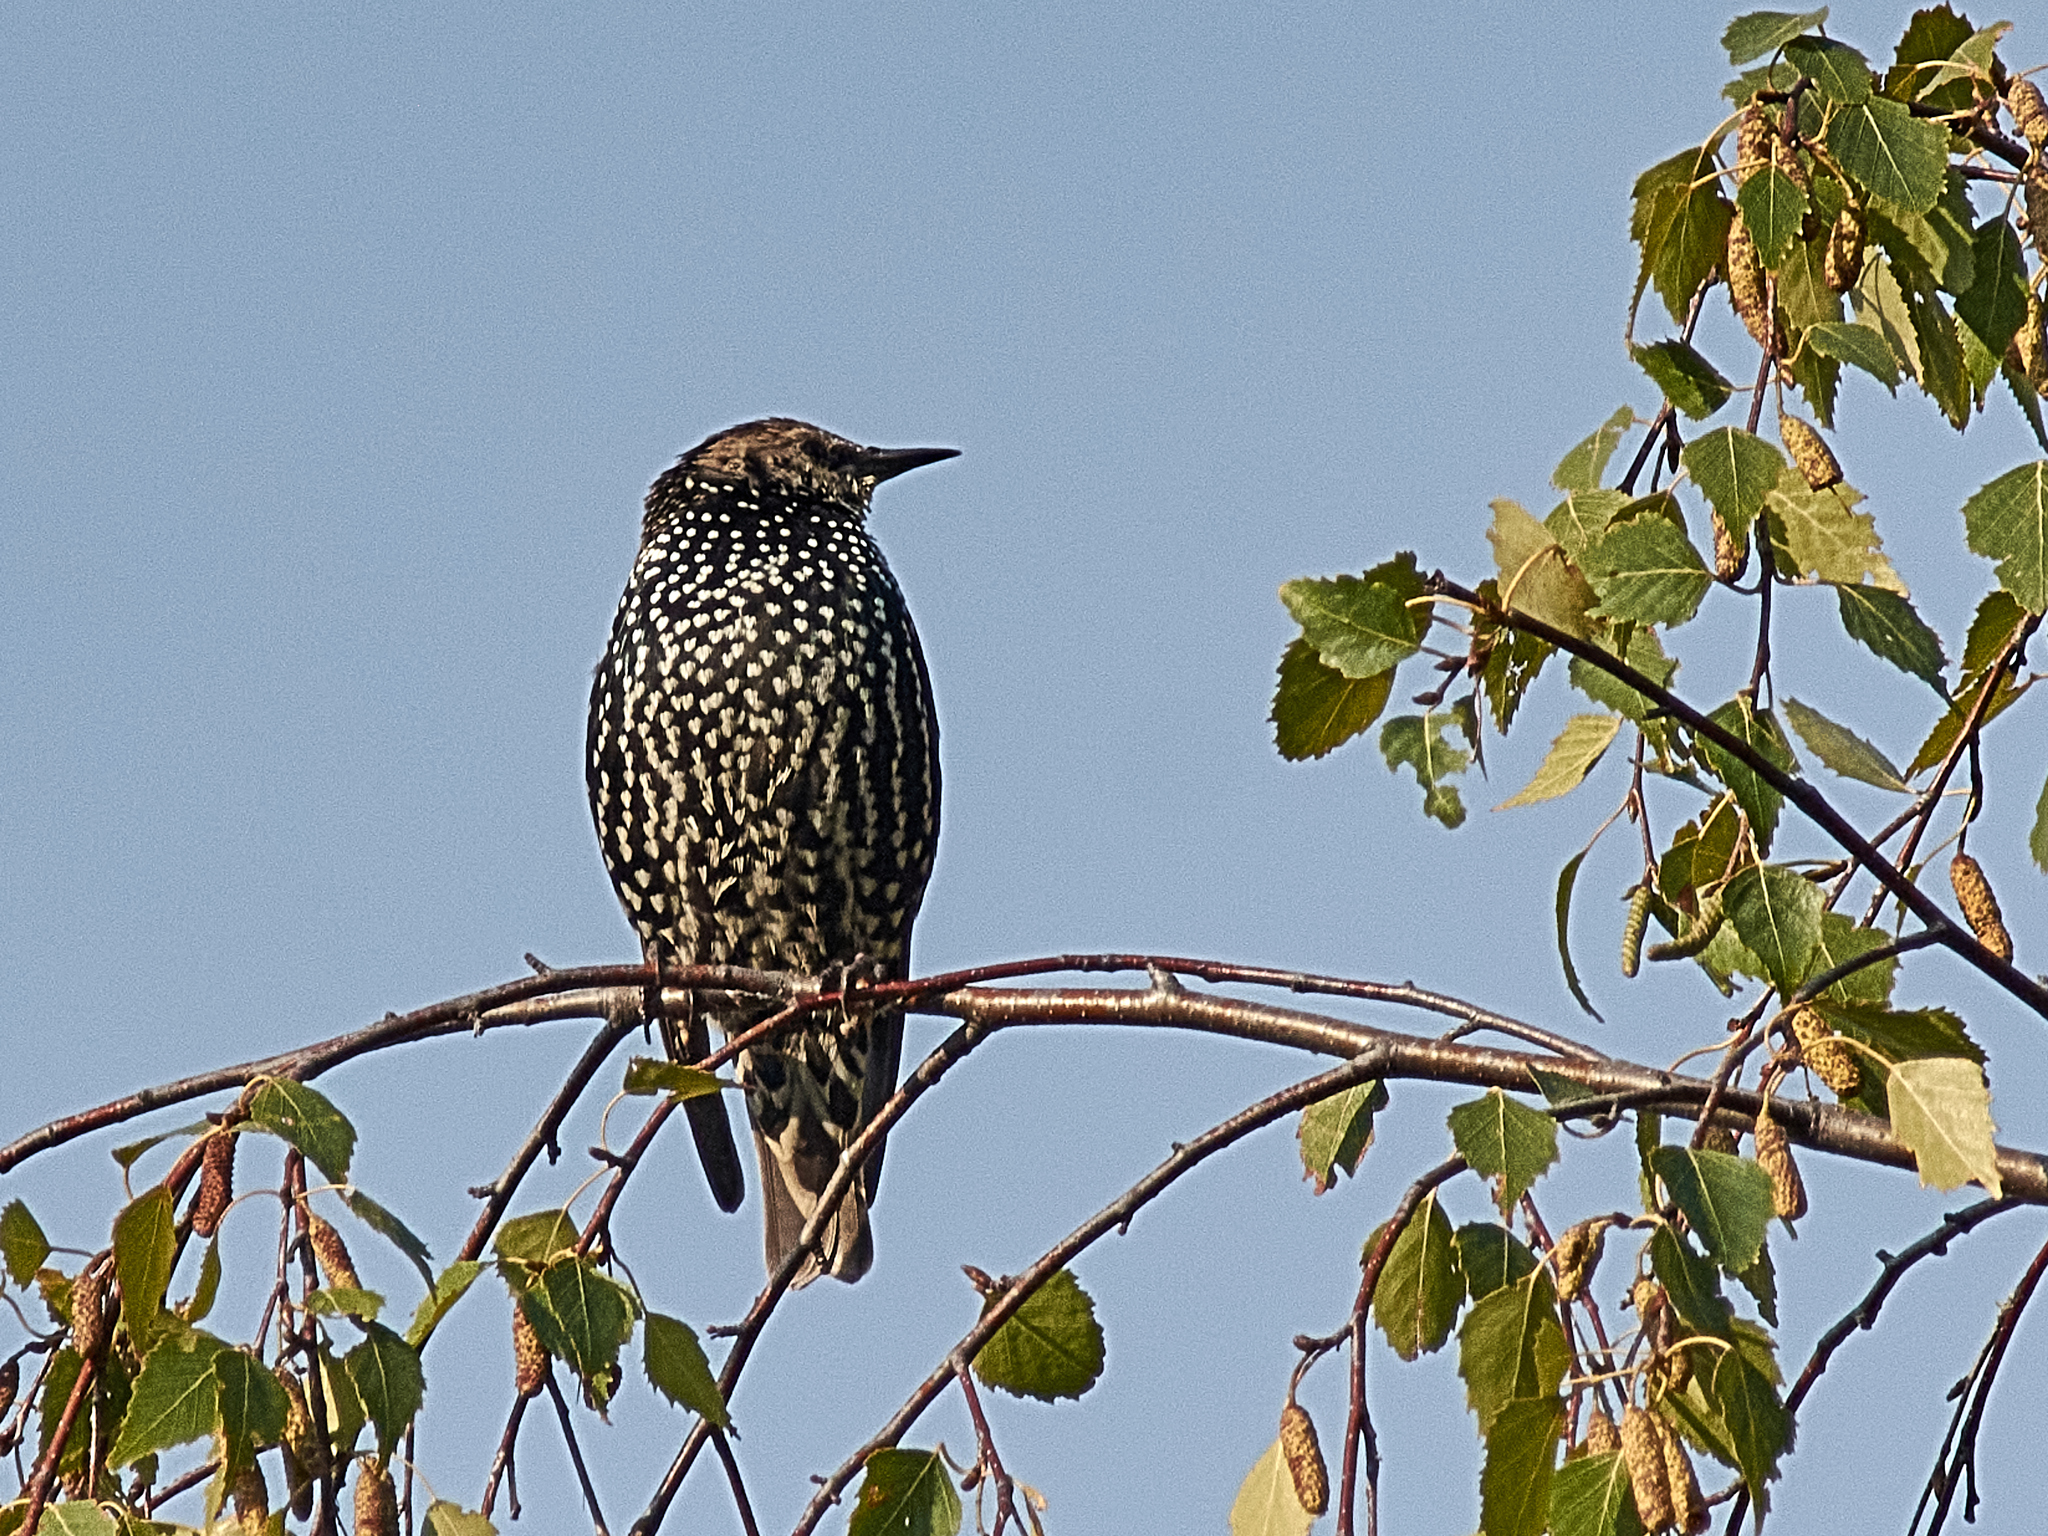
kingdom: Animalia
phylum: Chordata
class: Aves
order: Passeriformes
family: Sturnidae
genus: Sturnus
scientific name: Sturnus vulgaris
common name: Common starling
